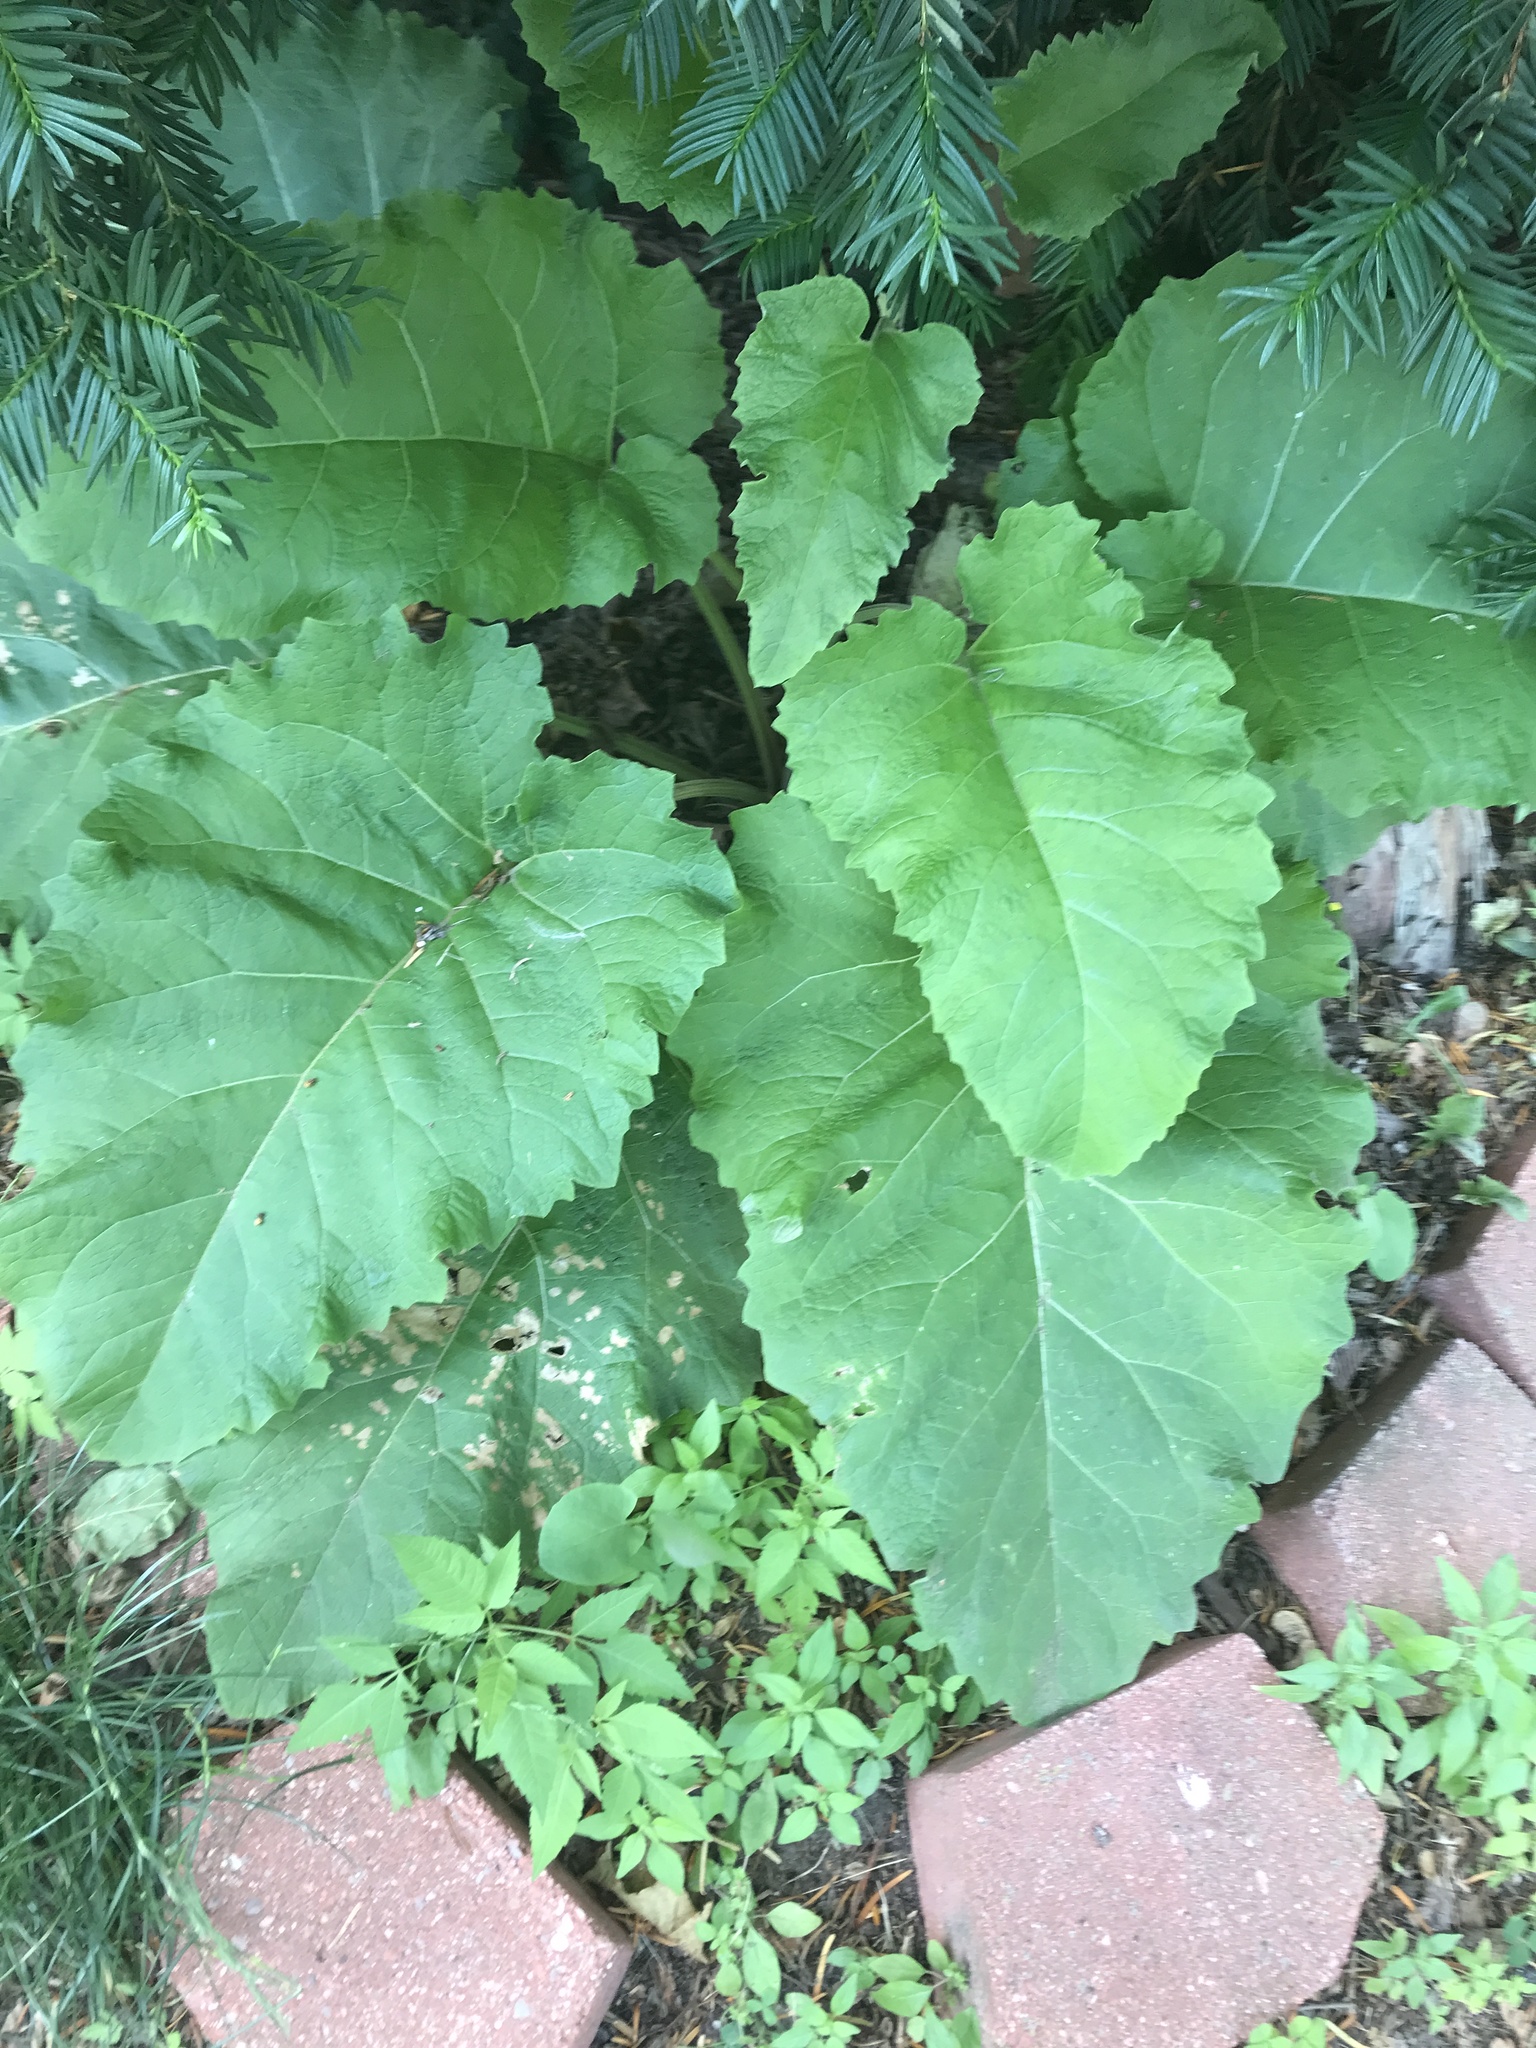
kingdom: Plantae
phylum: Tracheophyta
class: Magnoliopsida
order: Asterales
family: Asteraceae
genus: Arctium
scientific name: Arctium
